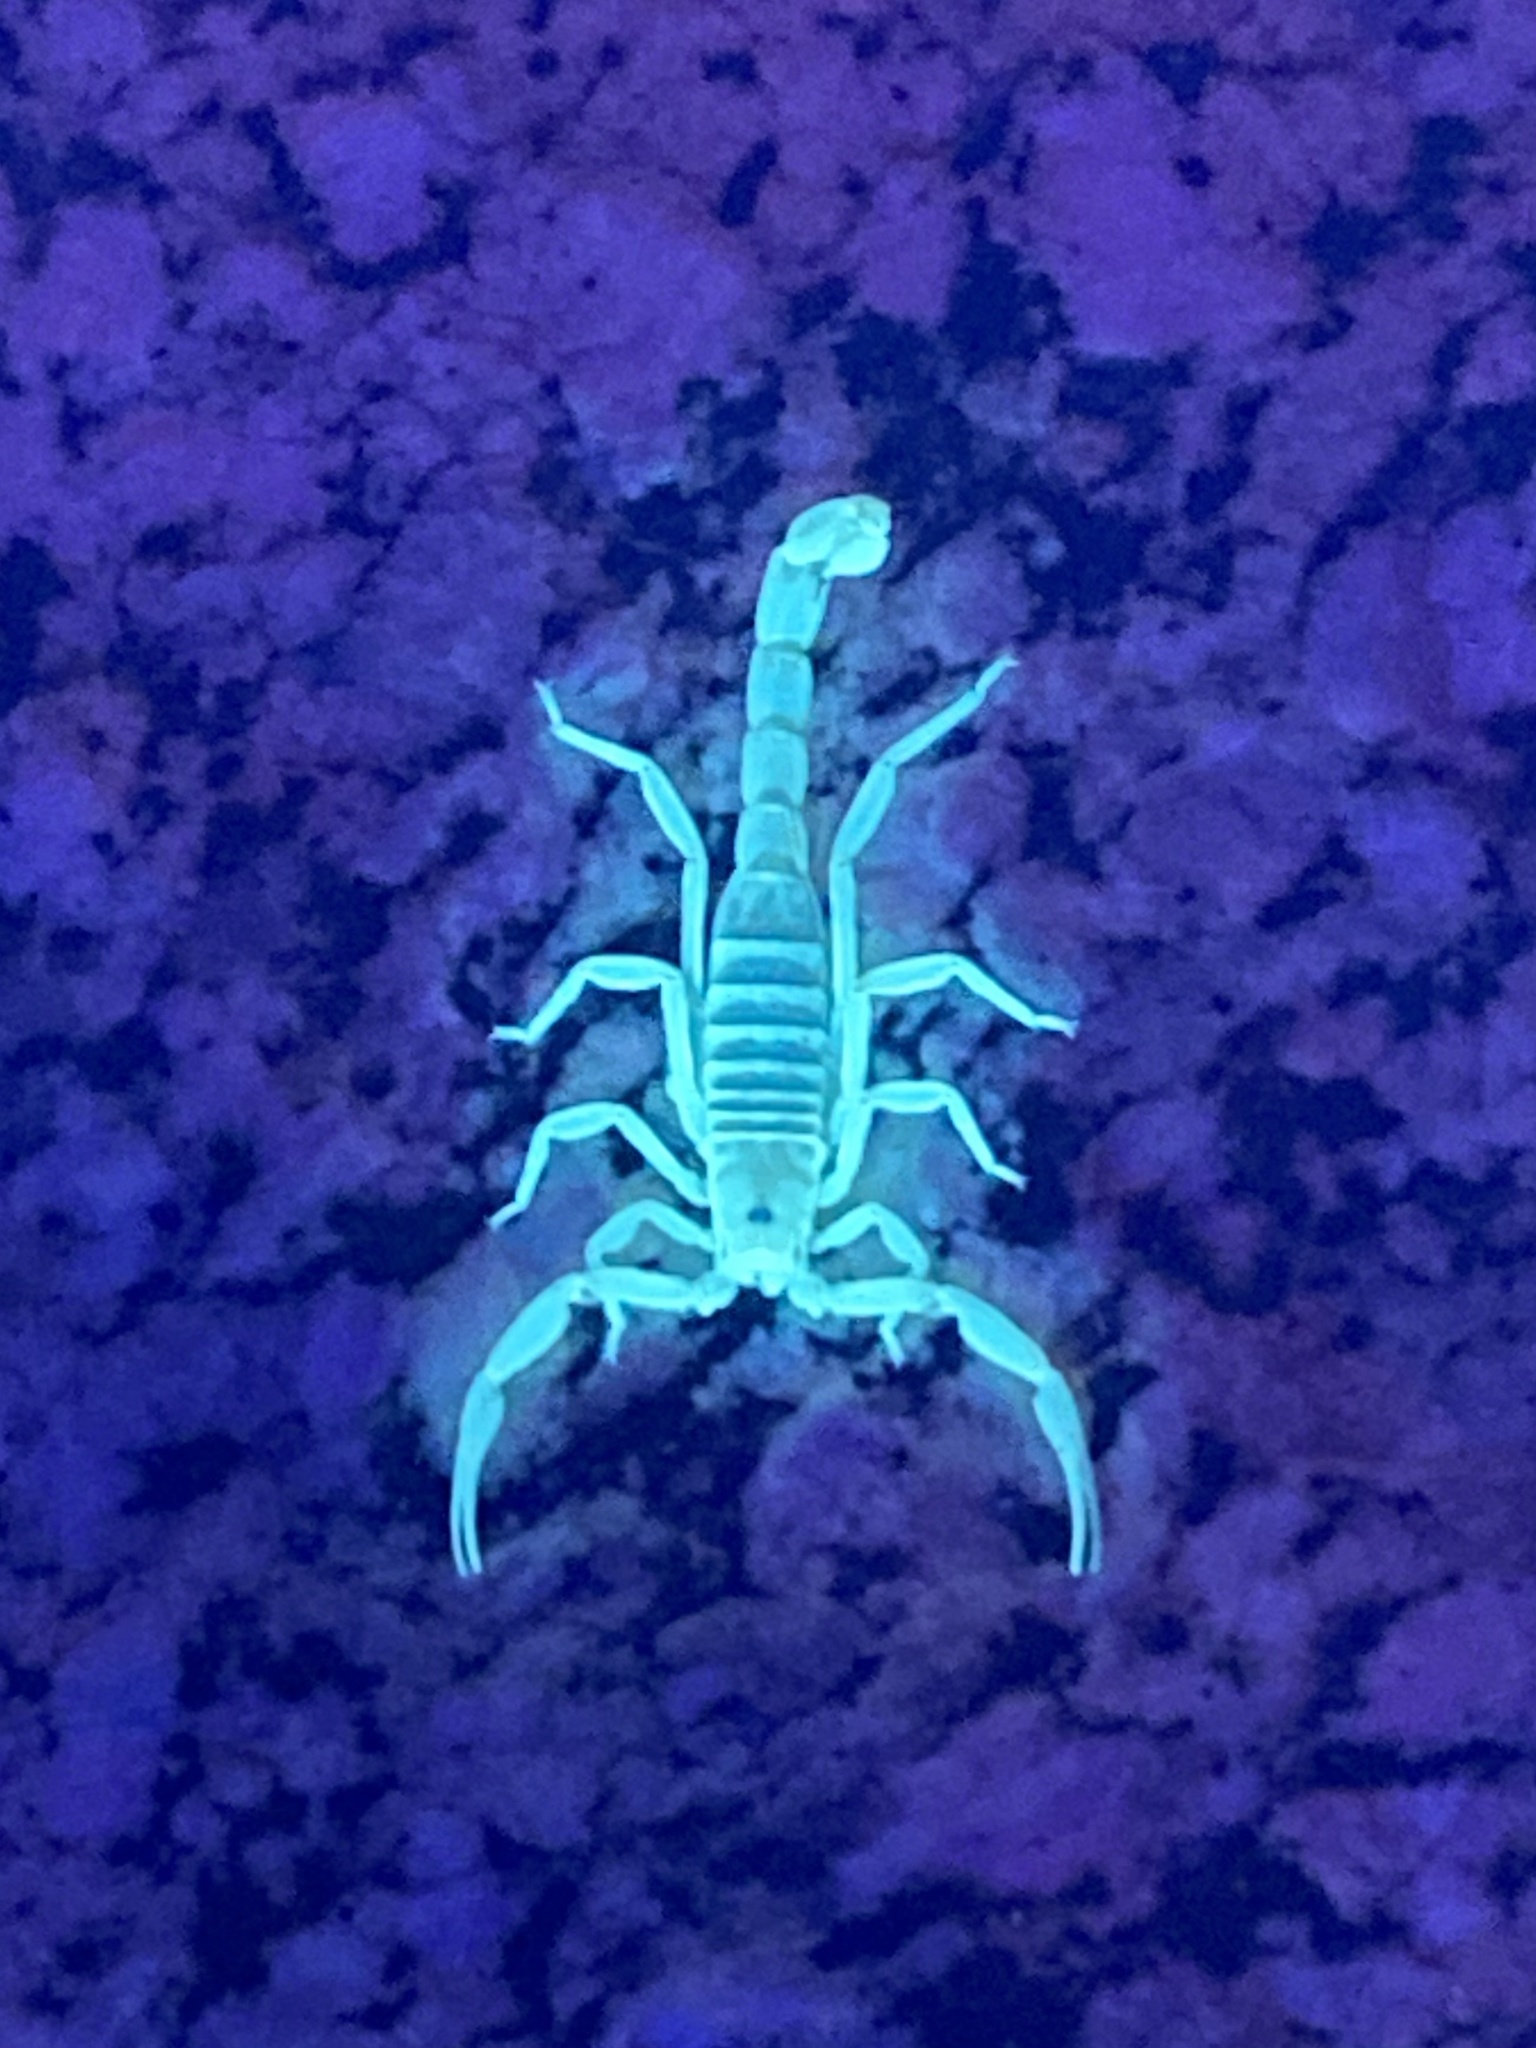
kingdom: Animalia
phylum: Arthropoda
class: Arachnida
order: Scorpiones
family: Vaejovidae
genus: Paravaejovis
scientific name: Paravaejovis waeringi
